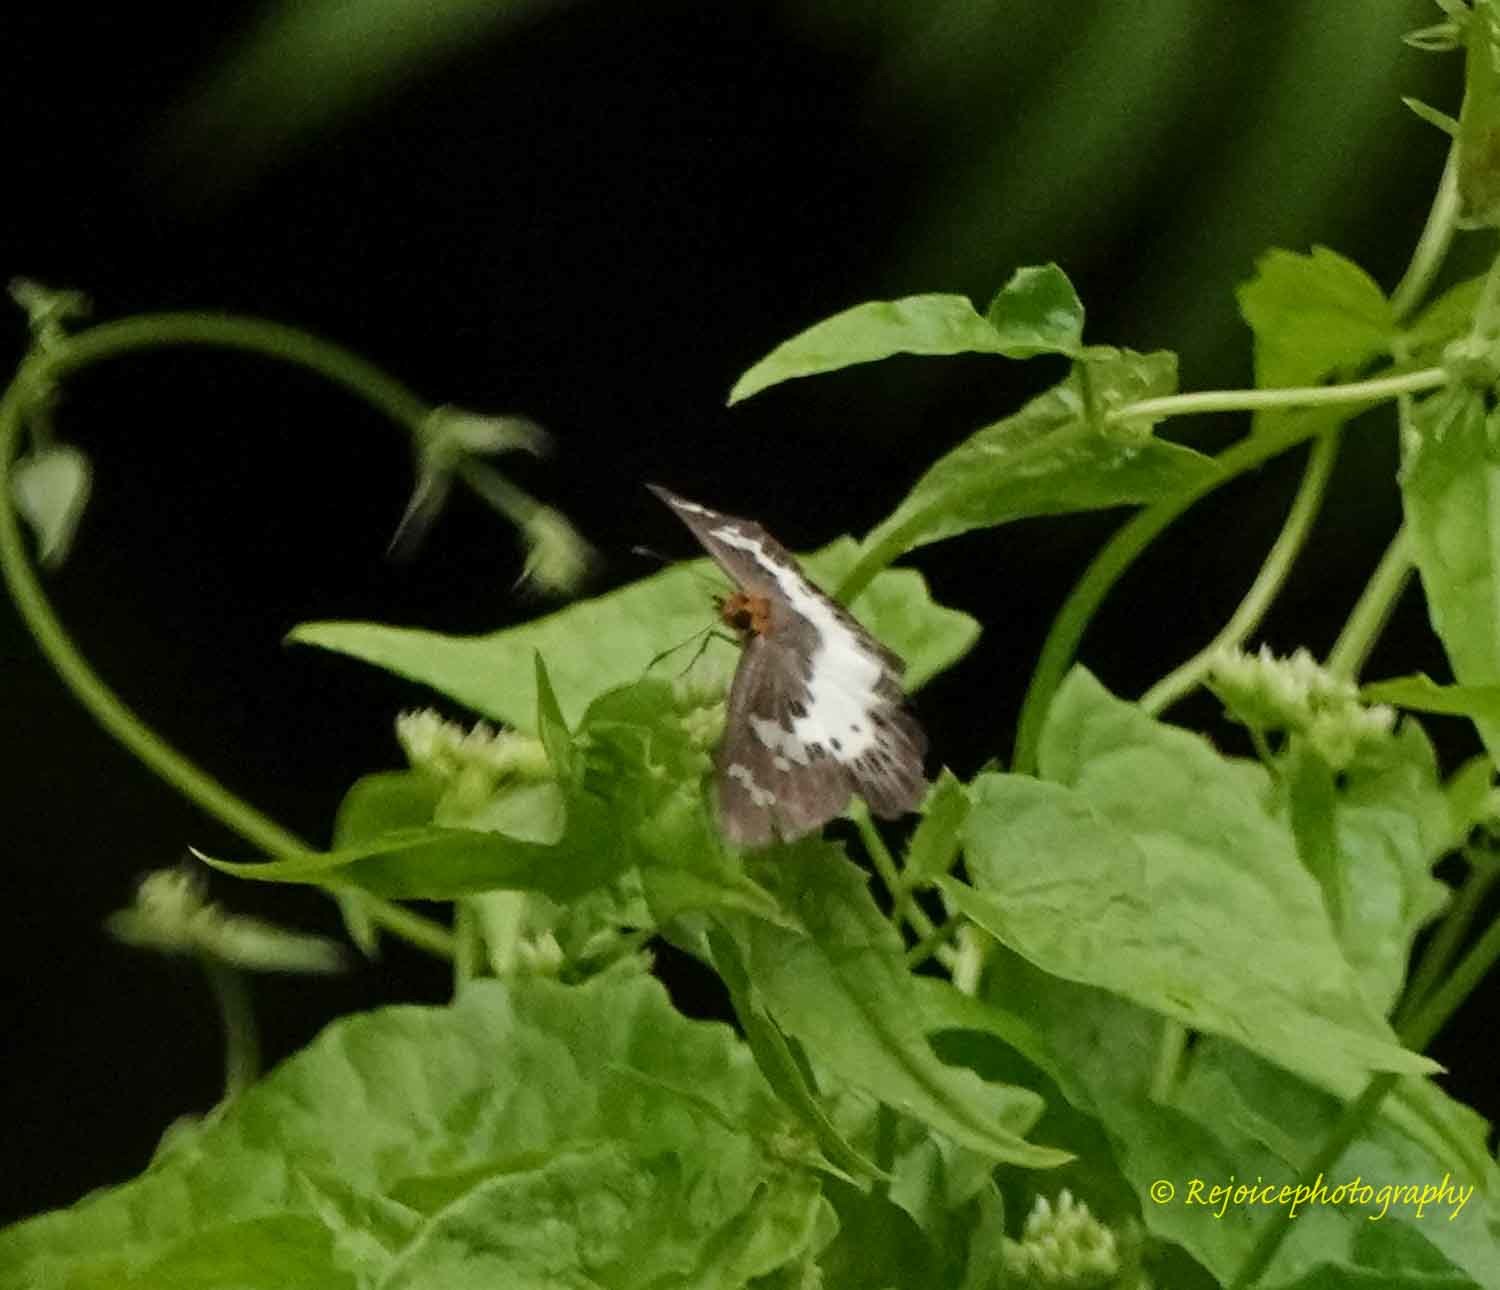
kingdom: Animalia
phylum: Arthropoda
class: Insecta
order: Lepidoptera
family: Hesperiidae
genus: Daimio
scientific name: Daimio
